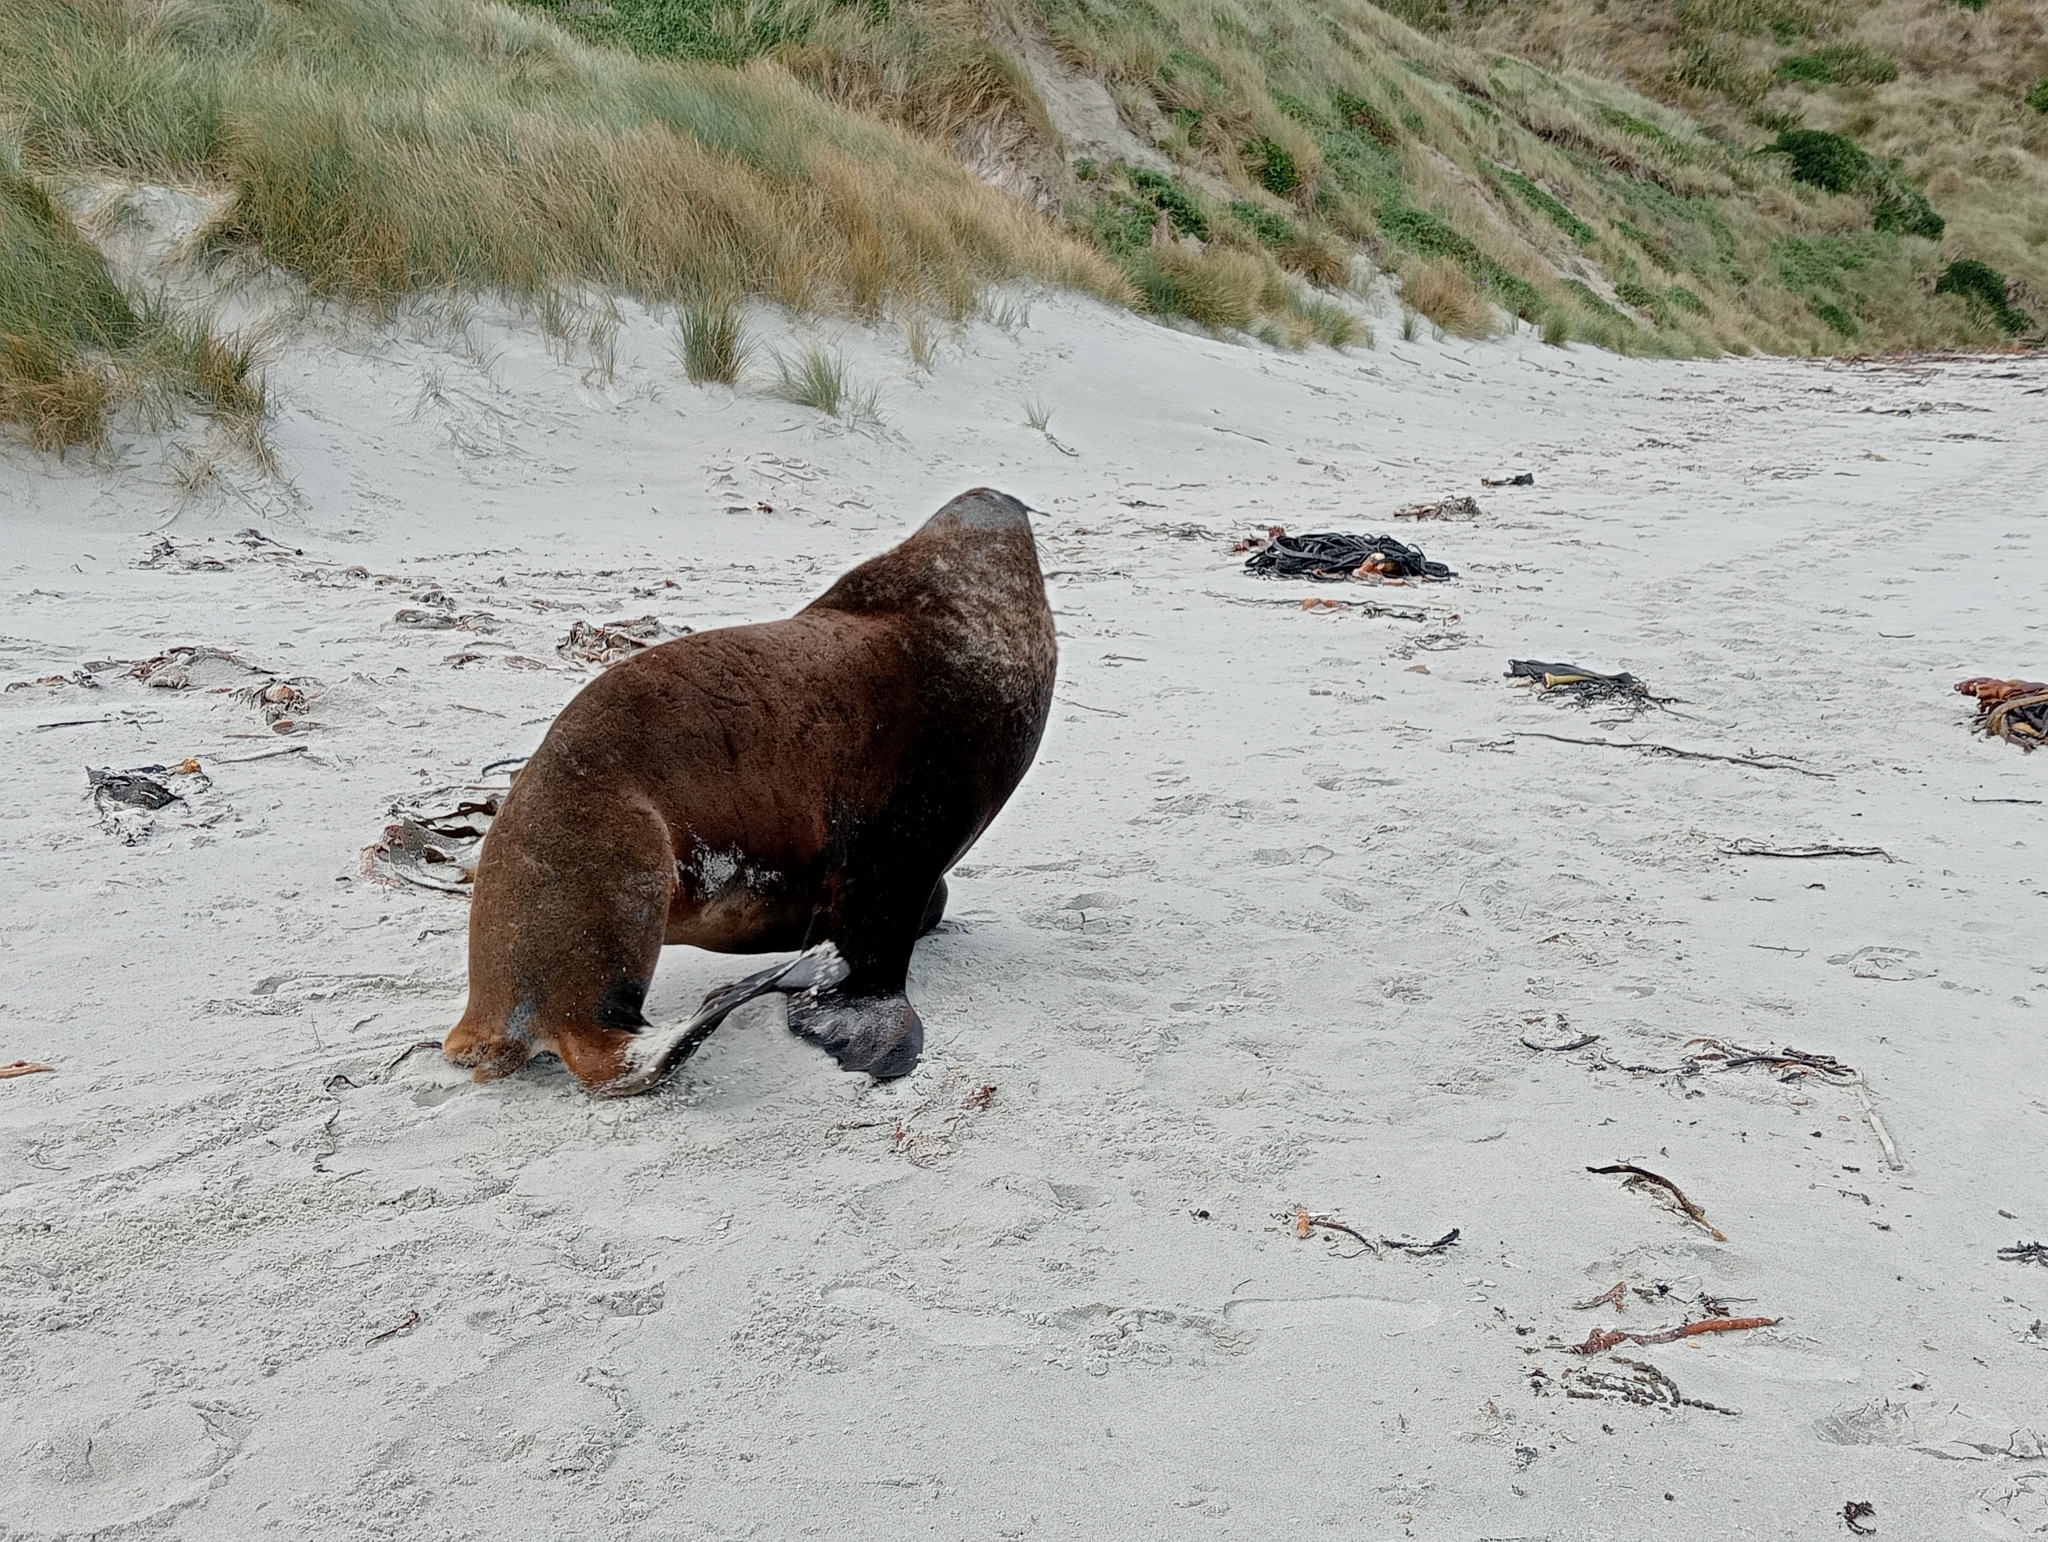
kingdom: Animalia
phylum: Chordata
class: Mammalia
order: Carnivora
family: Otariidae
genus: Phocarctos
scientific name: Phocarctos hookeri
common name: New zealand sea lion
